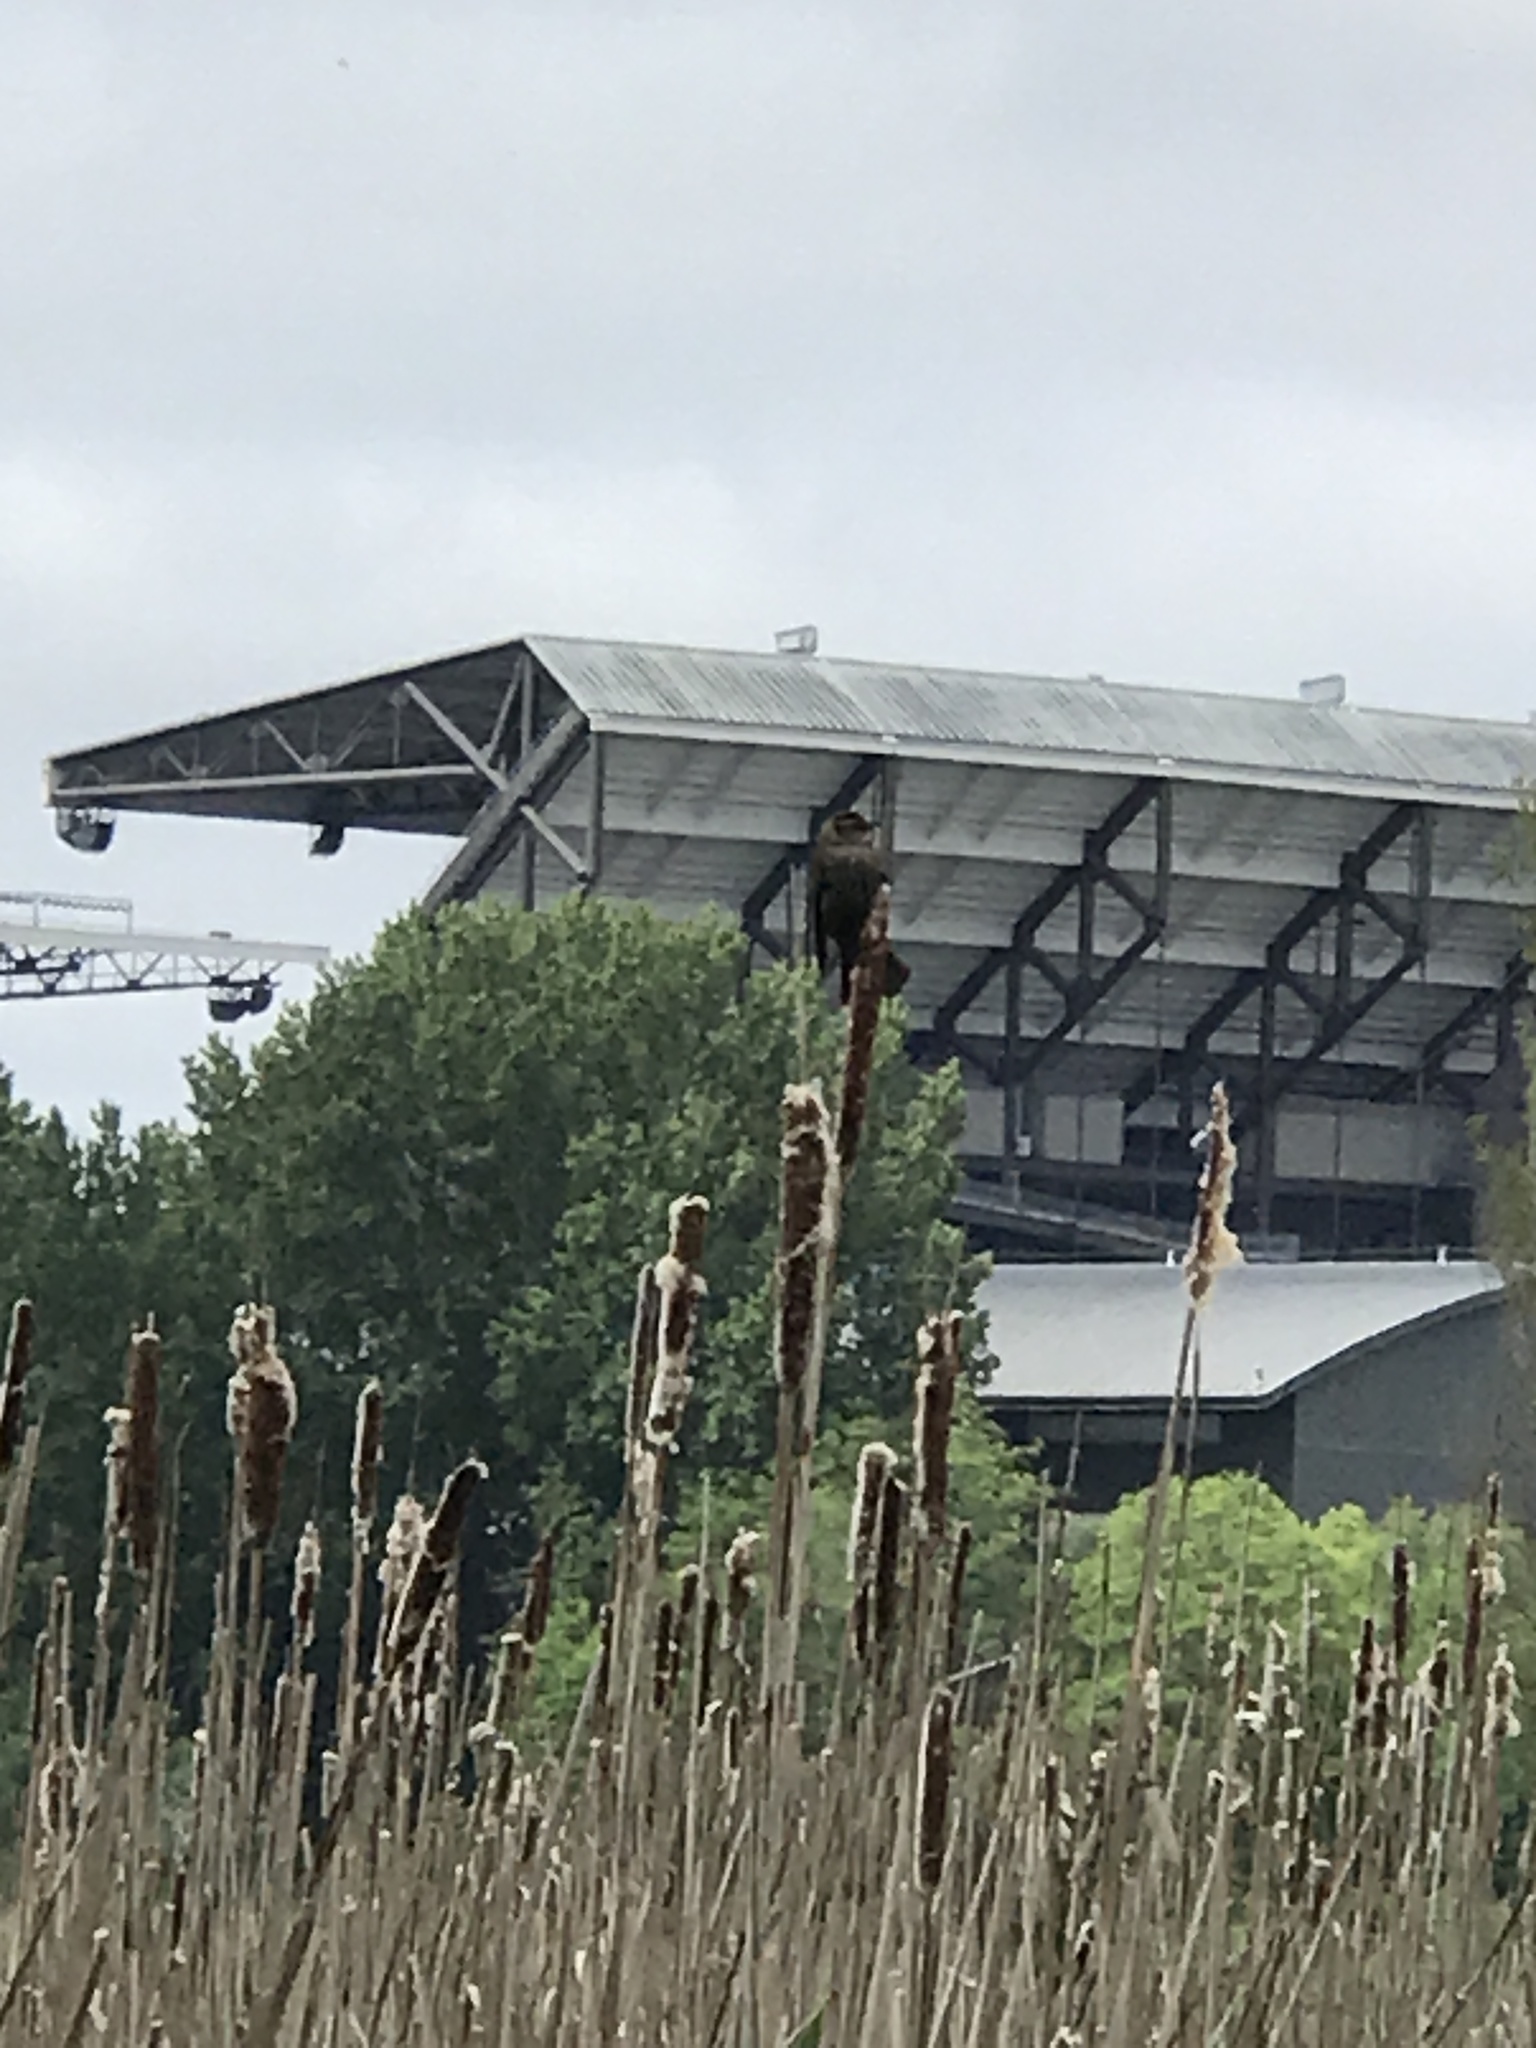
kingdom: Animalia
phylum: Chordata
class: Aves
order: Passeriformes
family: Icteridae
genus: Agelaius
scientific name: Agelaius phoeniceus
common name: Red-winged blackbird
